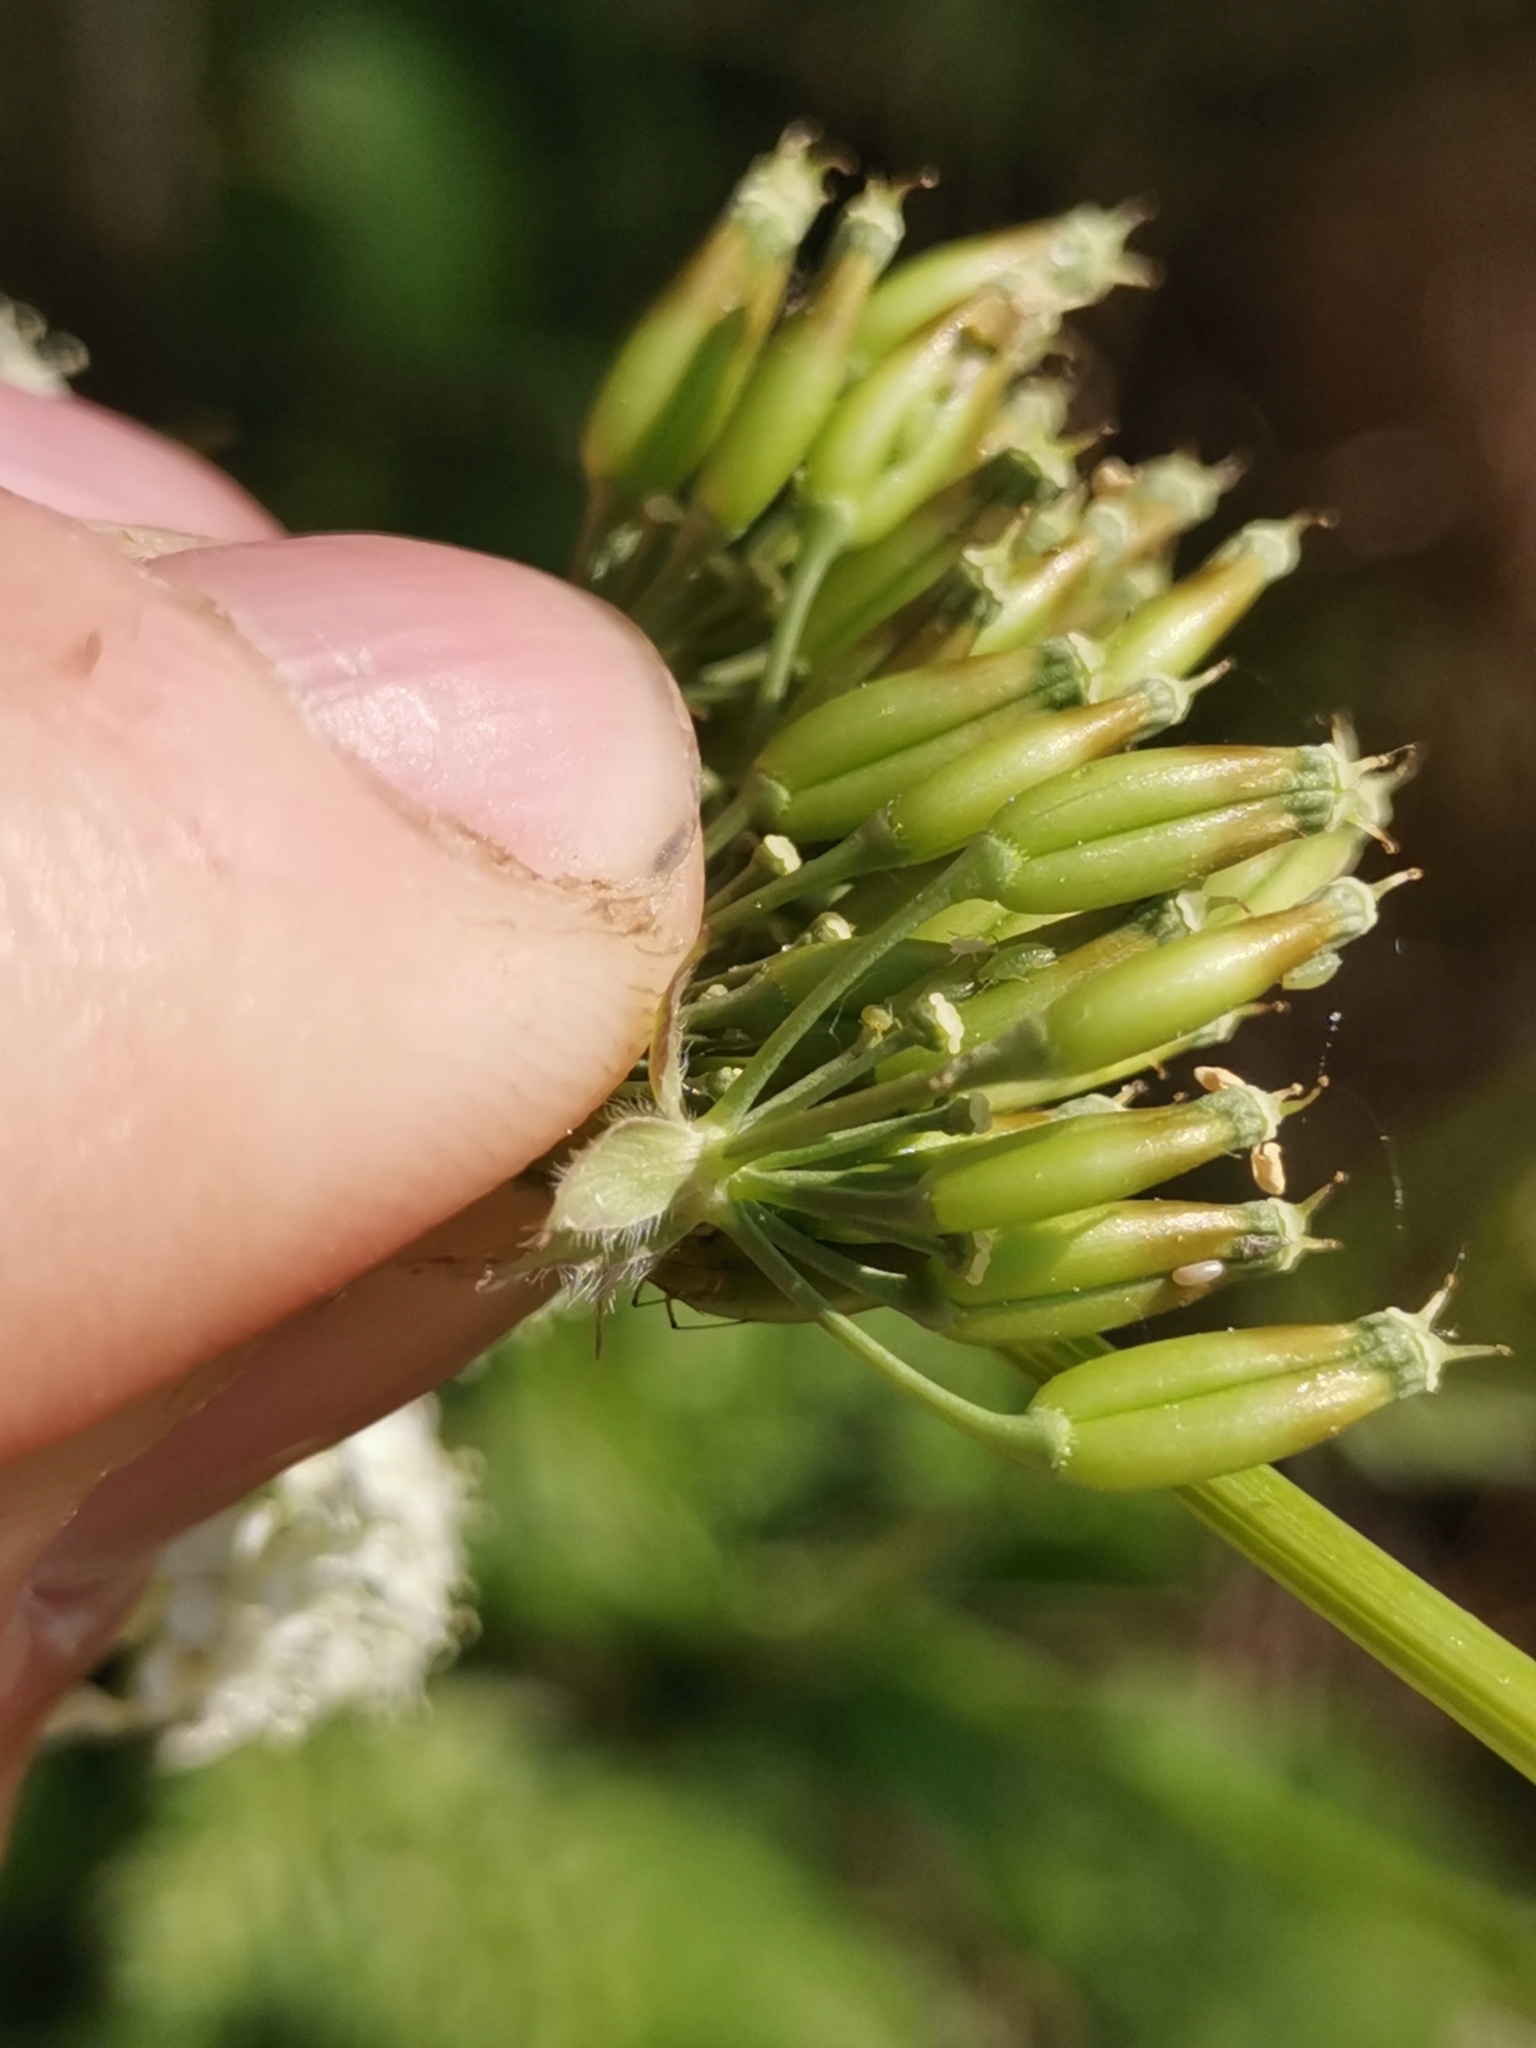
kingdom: Plantae
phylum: Tracheophyta
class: Magnoliopsida
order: Apiales
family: Apiaceae
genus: Anthriscus
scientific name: Anthriscus sylvestris
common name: Cow parsley
